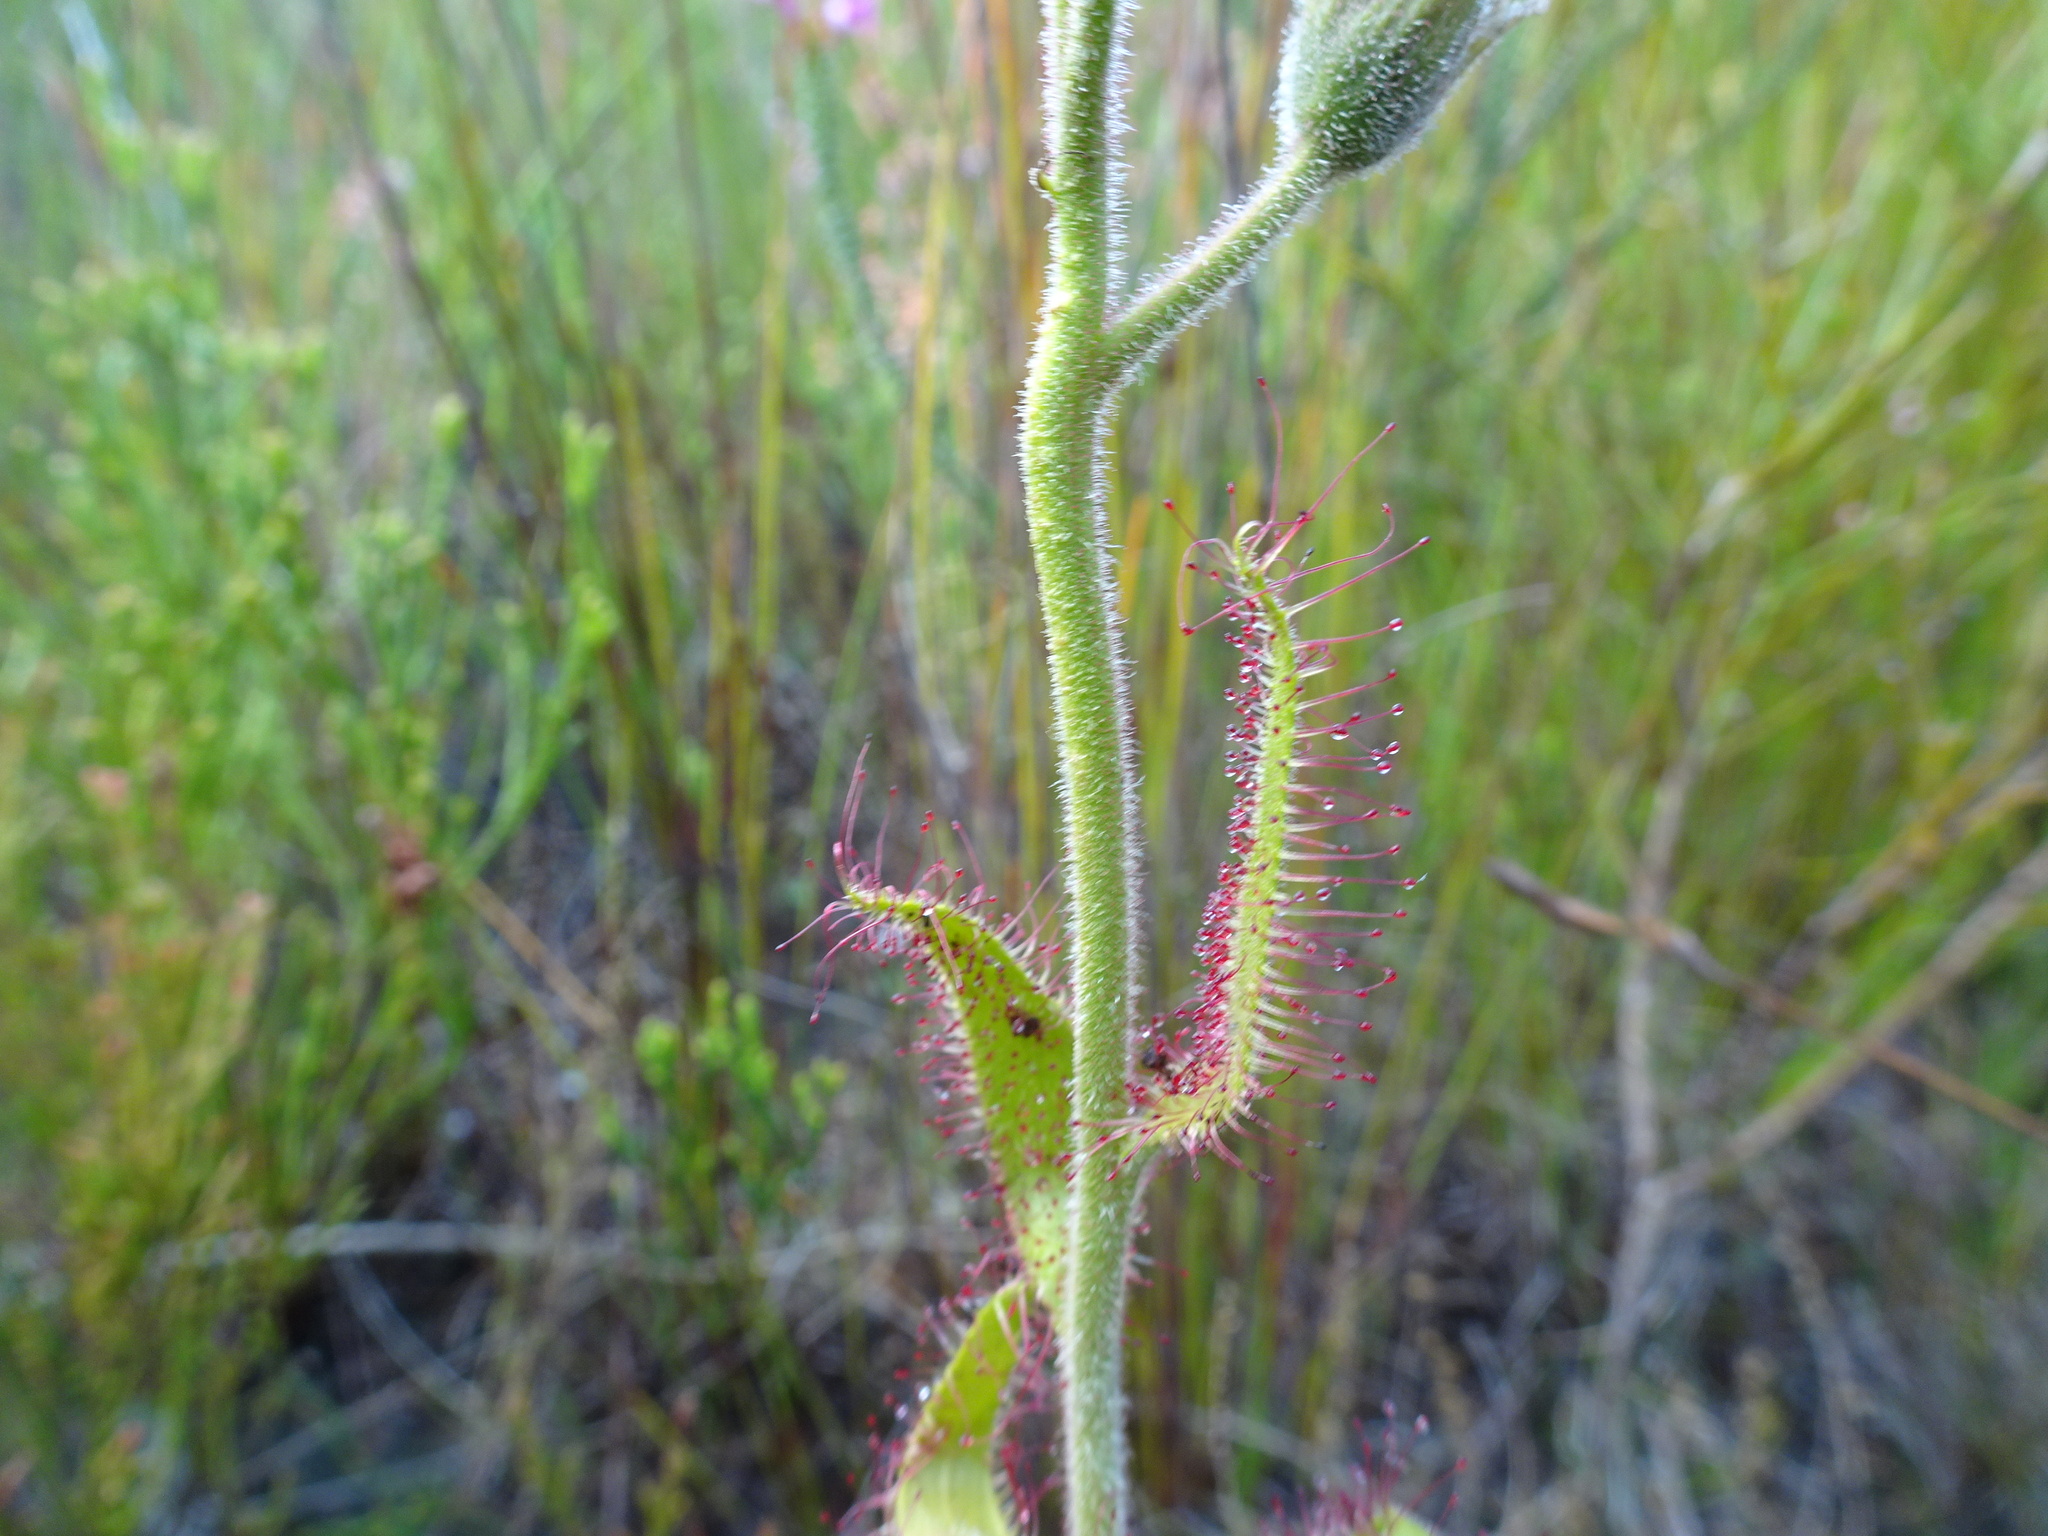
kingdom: Plantae
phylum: Tracheophyta
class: Magnoliopsida
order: Caryophyllales
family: Droseraceae
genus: Drosera
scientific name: Drosera cistiflora
